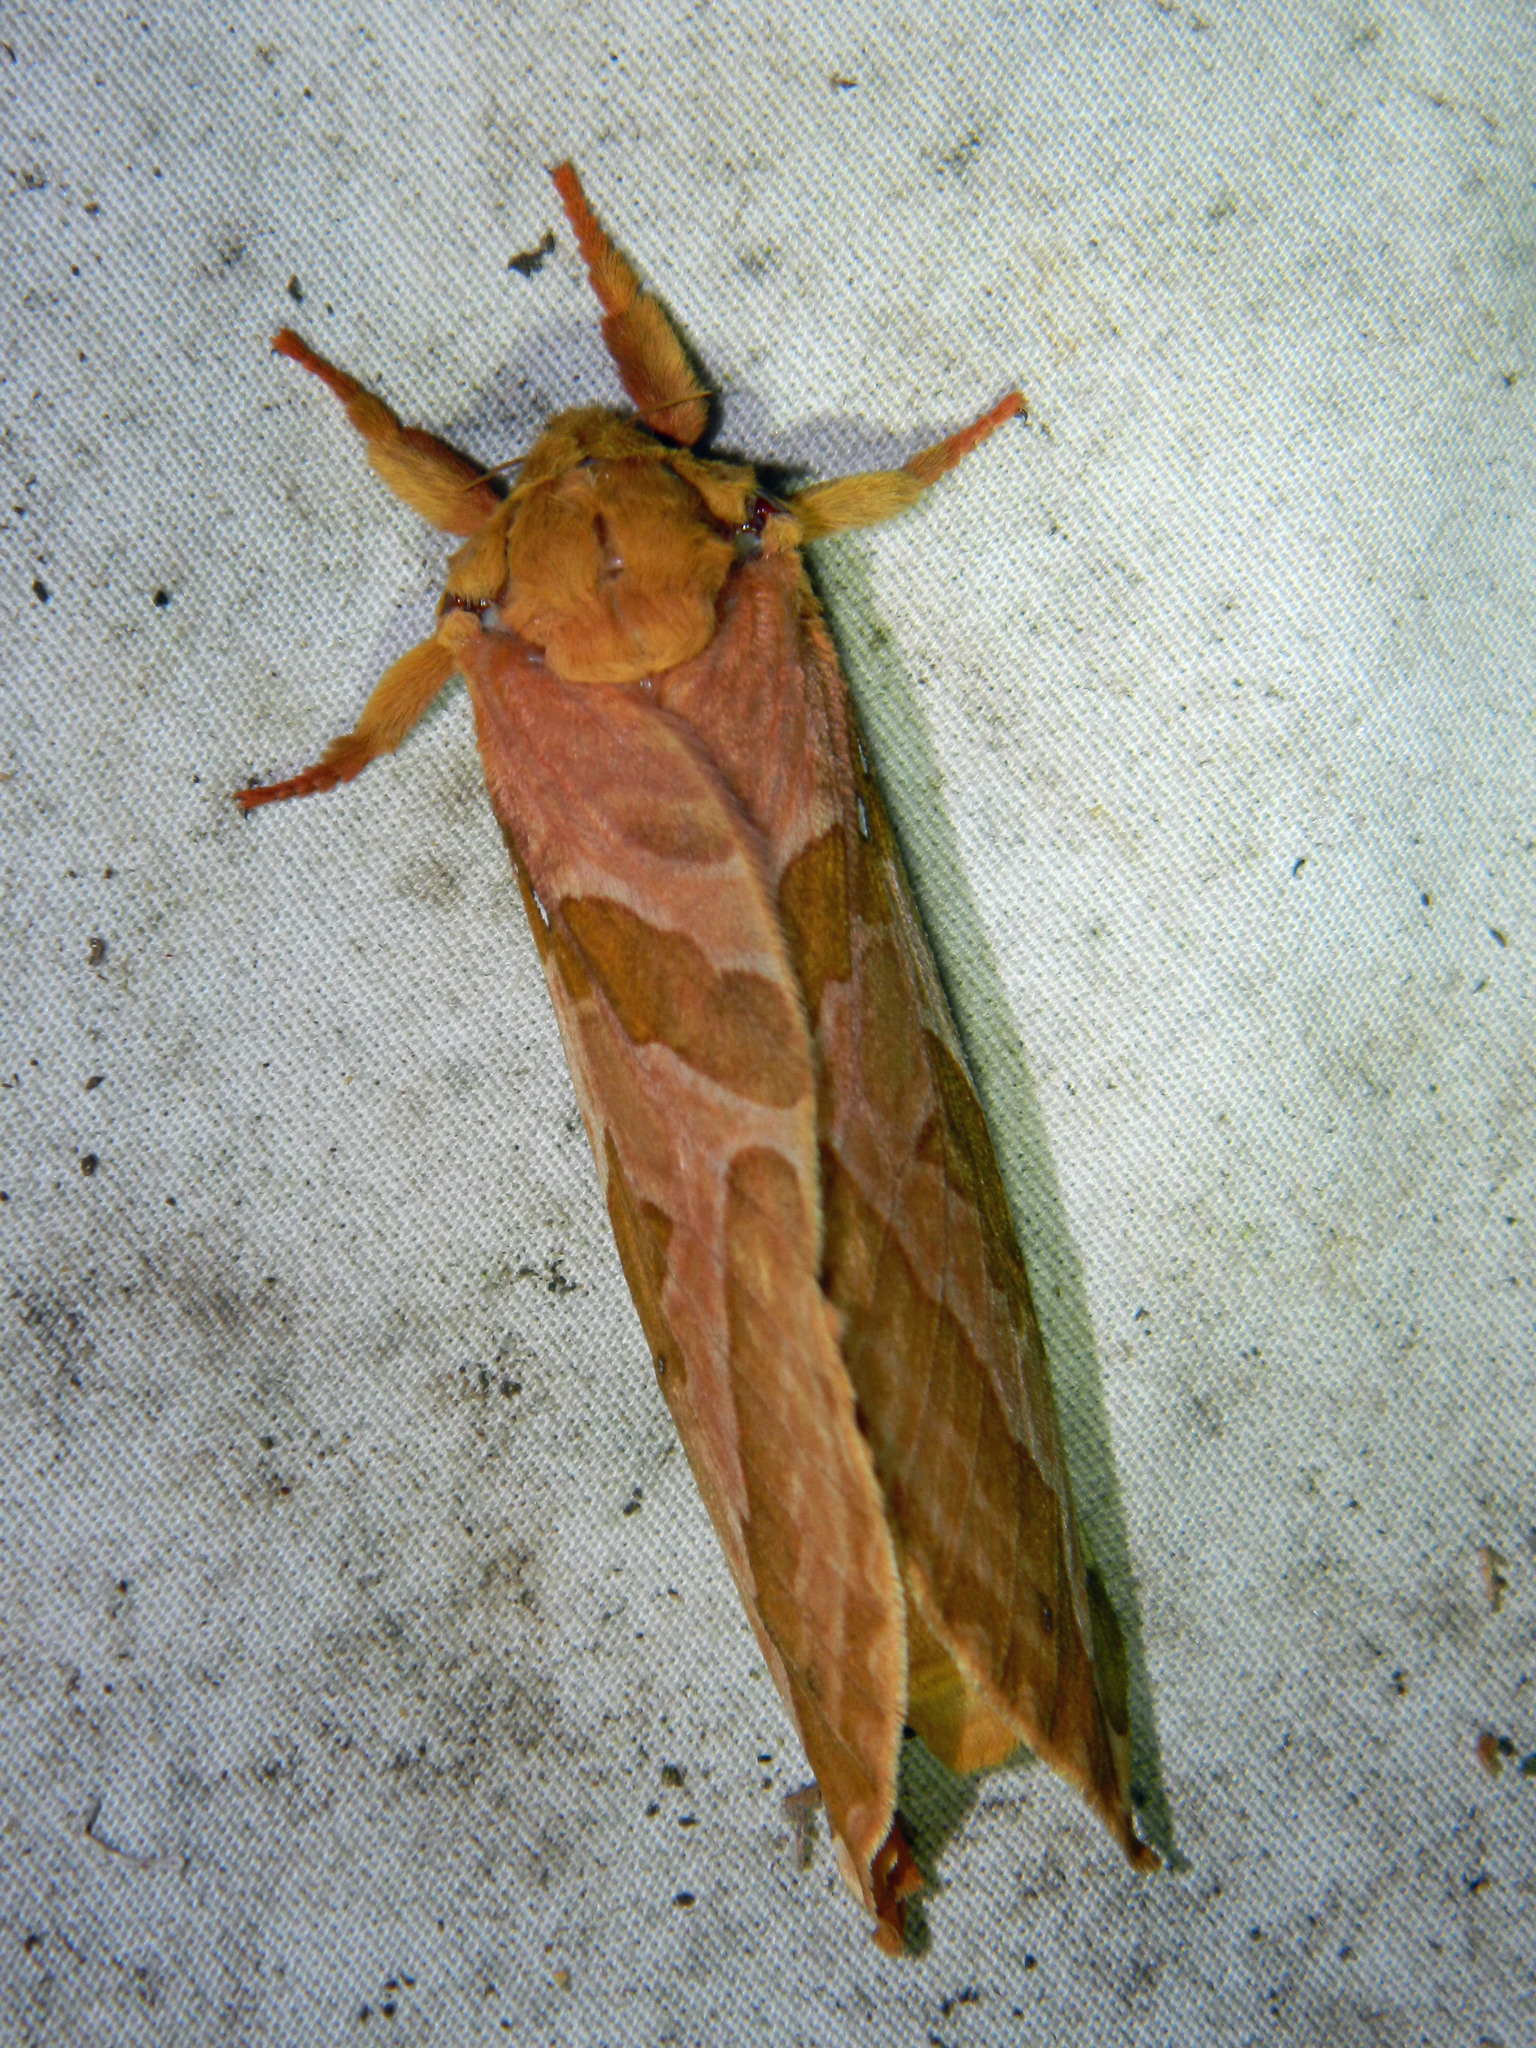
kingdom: Animalia
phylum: Arthropoda
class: Insecta
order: Lepidoptera
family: Hepialidae
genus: Sthenopis
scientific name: Sthenopis purpurascens
